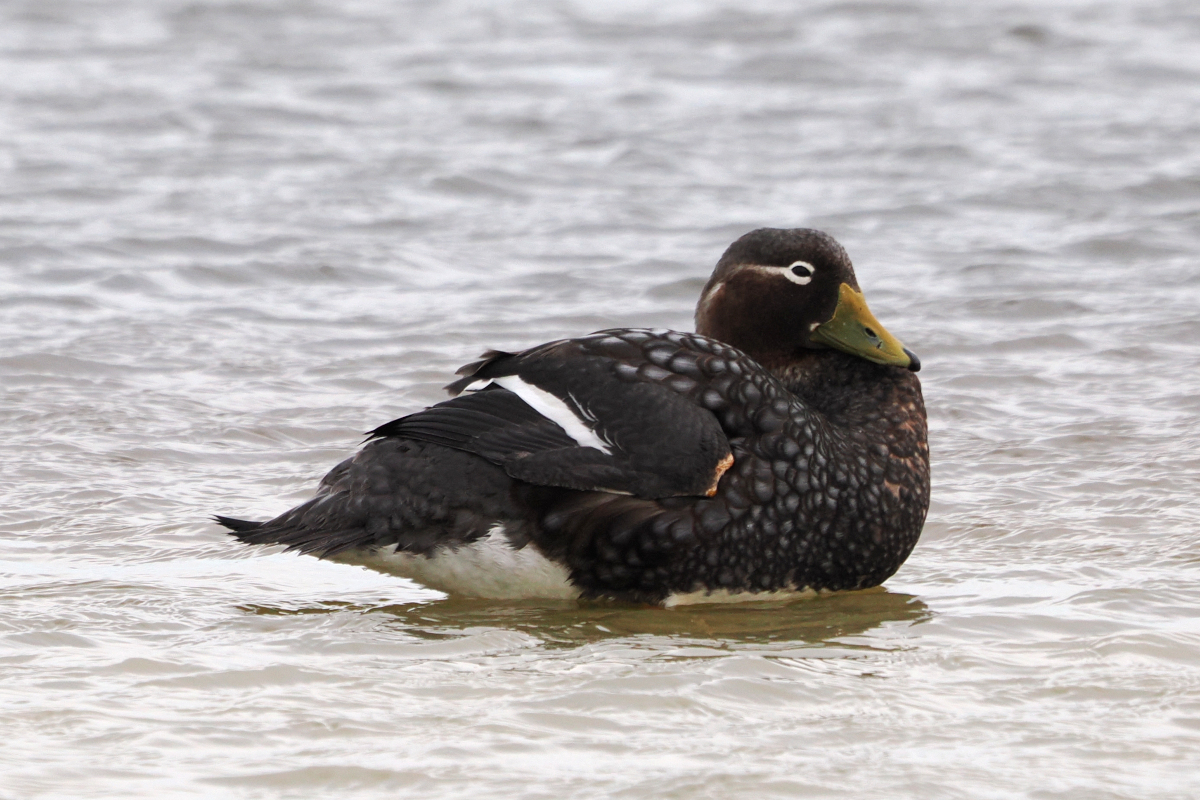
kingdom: Animalia
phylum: Chordata
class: Aves
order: Anseriformes
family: Anatidae
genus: Tachyeres
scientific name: Tachyeres brachypterus
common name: Falkland steamer duck
